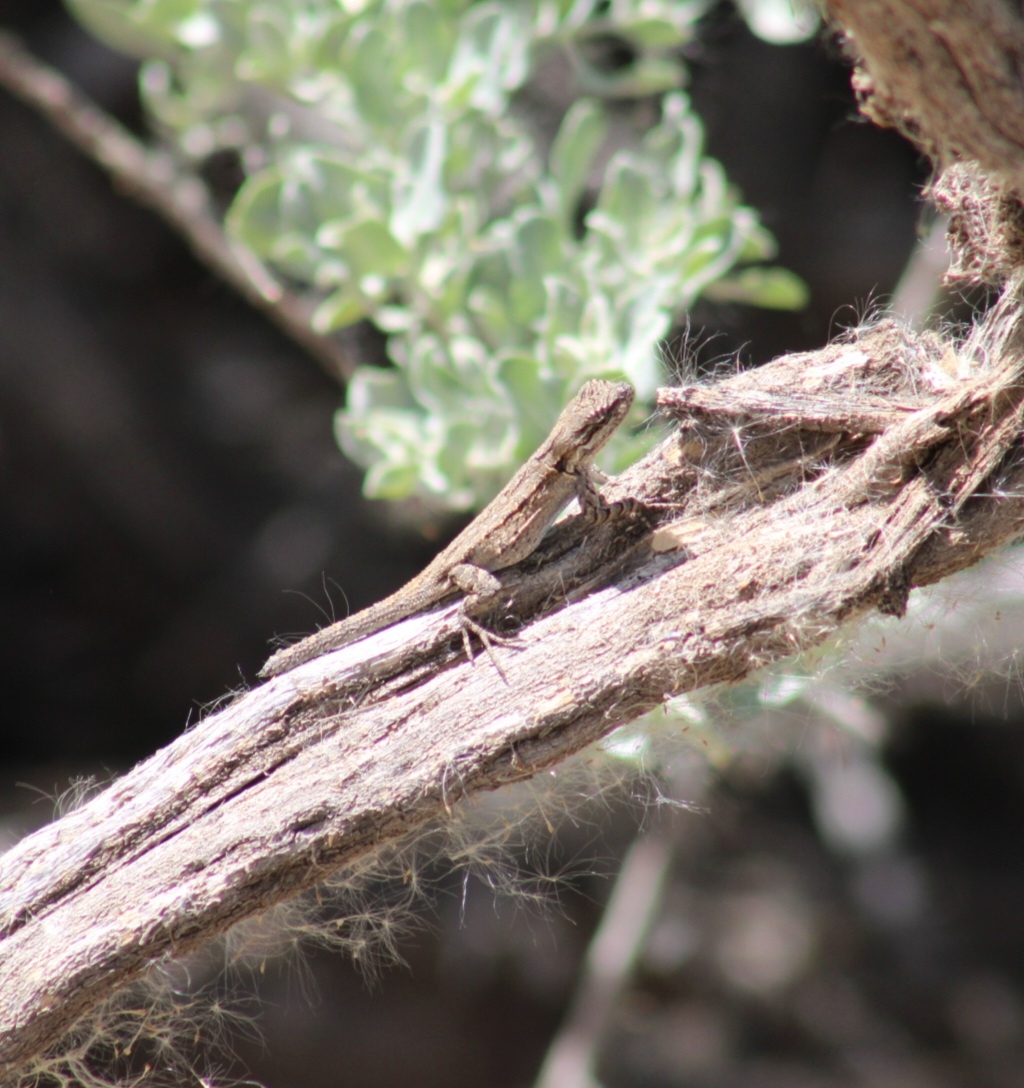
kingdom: Animalia
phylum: Chordata
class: Squamata
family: Phrynosomatidae
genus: Urosaurus
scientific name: Urosaurus ornatus
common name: Ornate tree lizard
